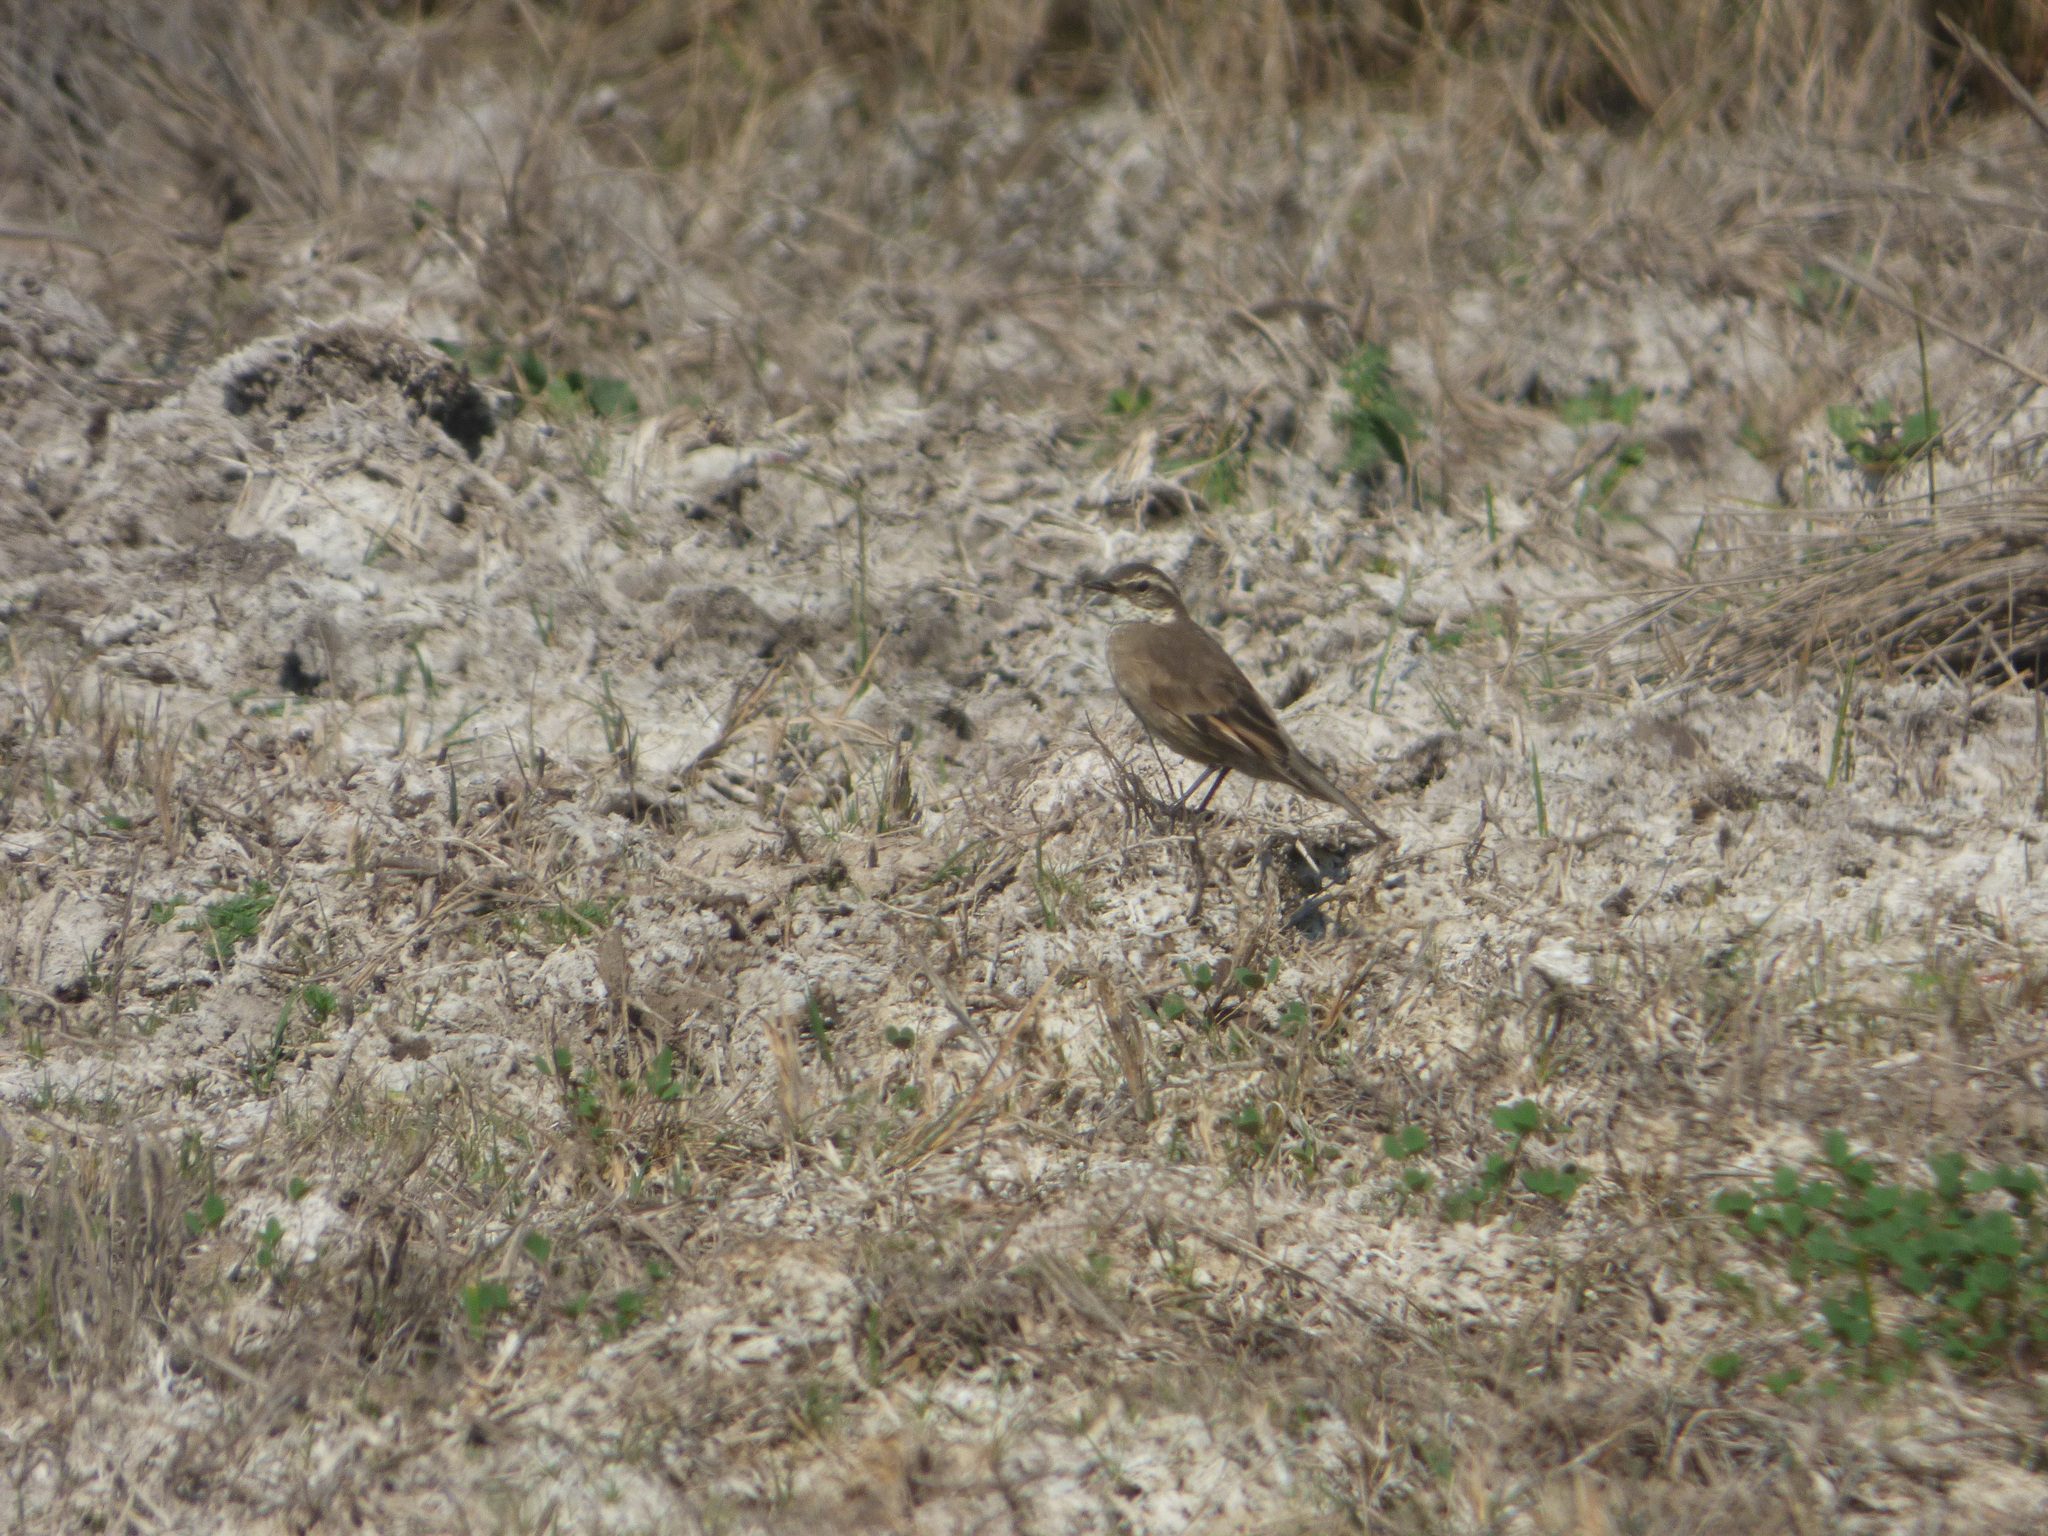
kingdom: Animalia
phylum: Chordata
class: Aves
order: Passeriformes
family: Furnariidae
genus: Cinclodes
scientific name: Cinclodes fuscus
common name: Buff-winged cinclodes
